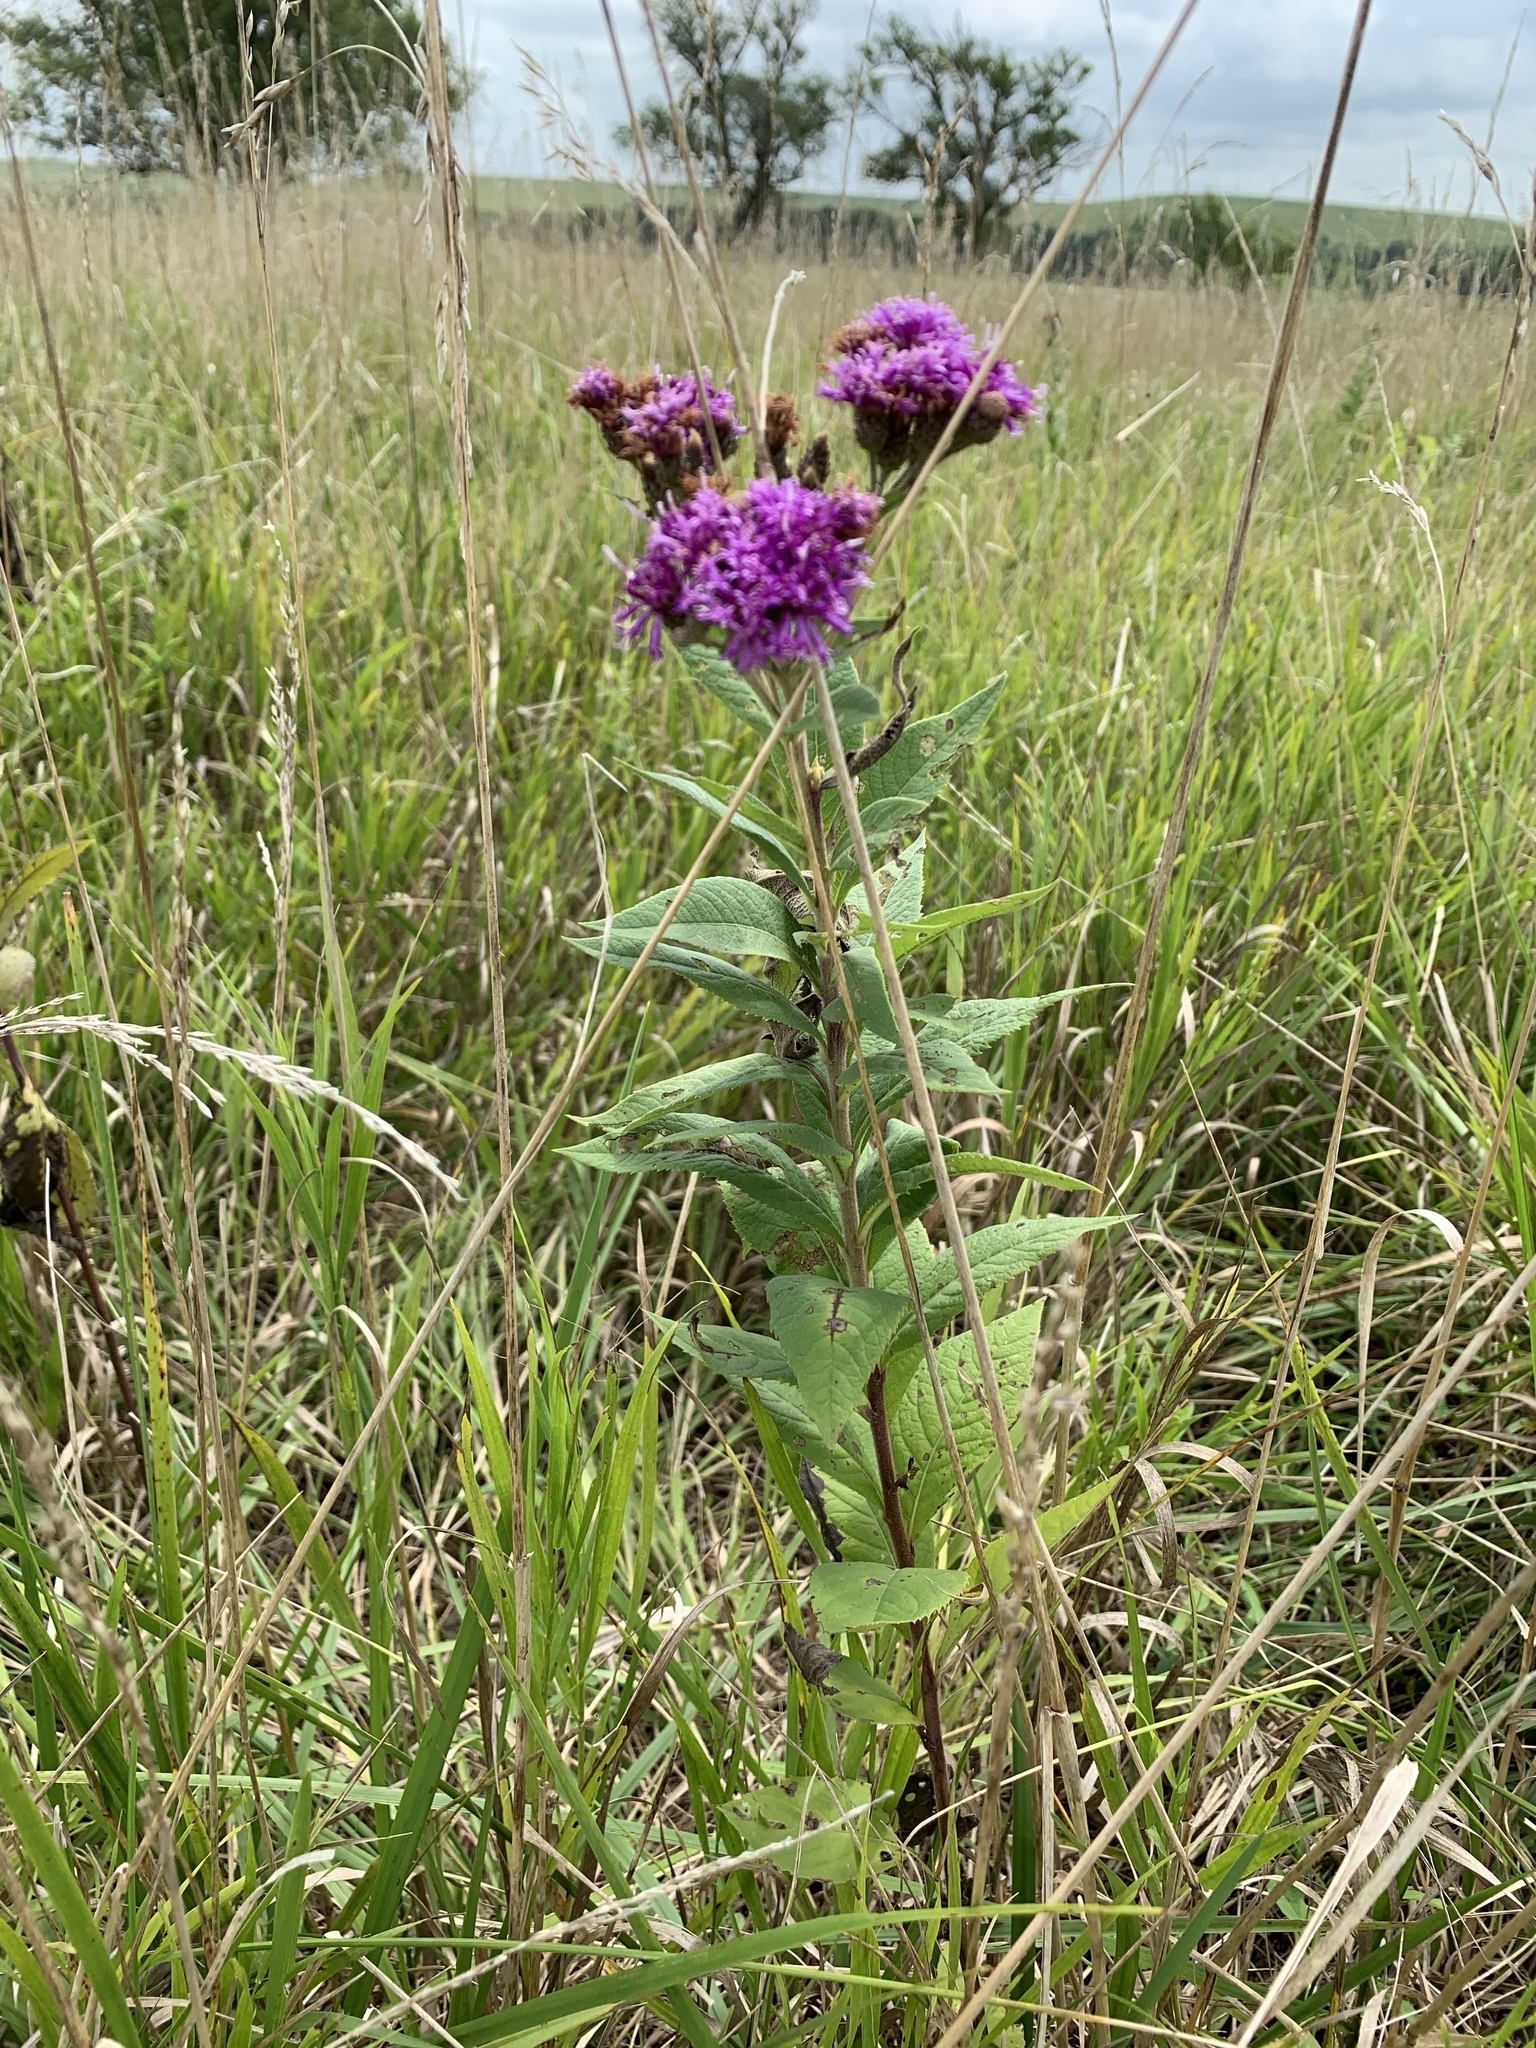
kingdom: Plantae
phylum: Tracheophyta
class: Magnoliopsida
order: Asterales
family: Asteraceae
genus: Vernonia
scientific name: Vernonia baldwinii
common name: Western ironweed
